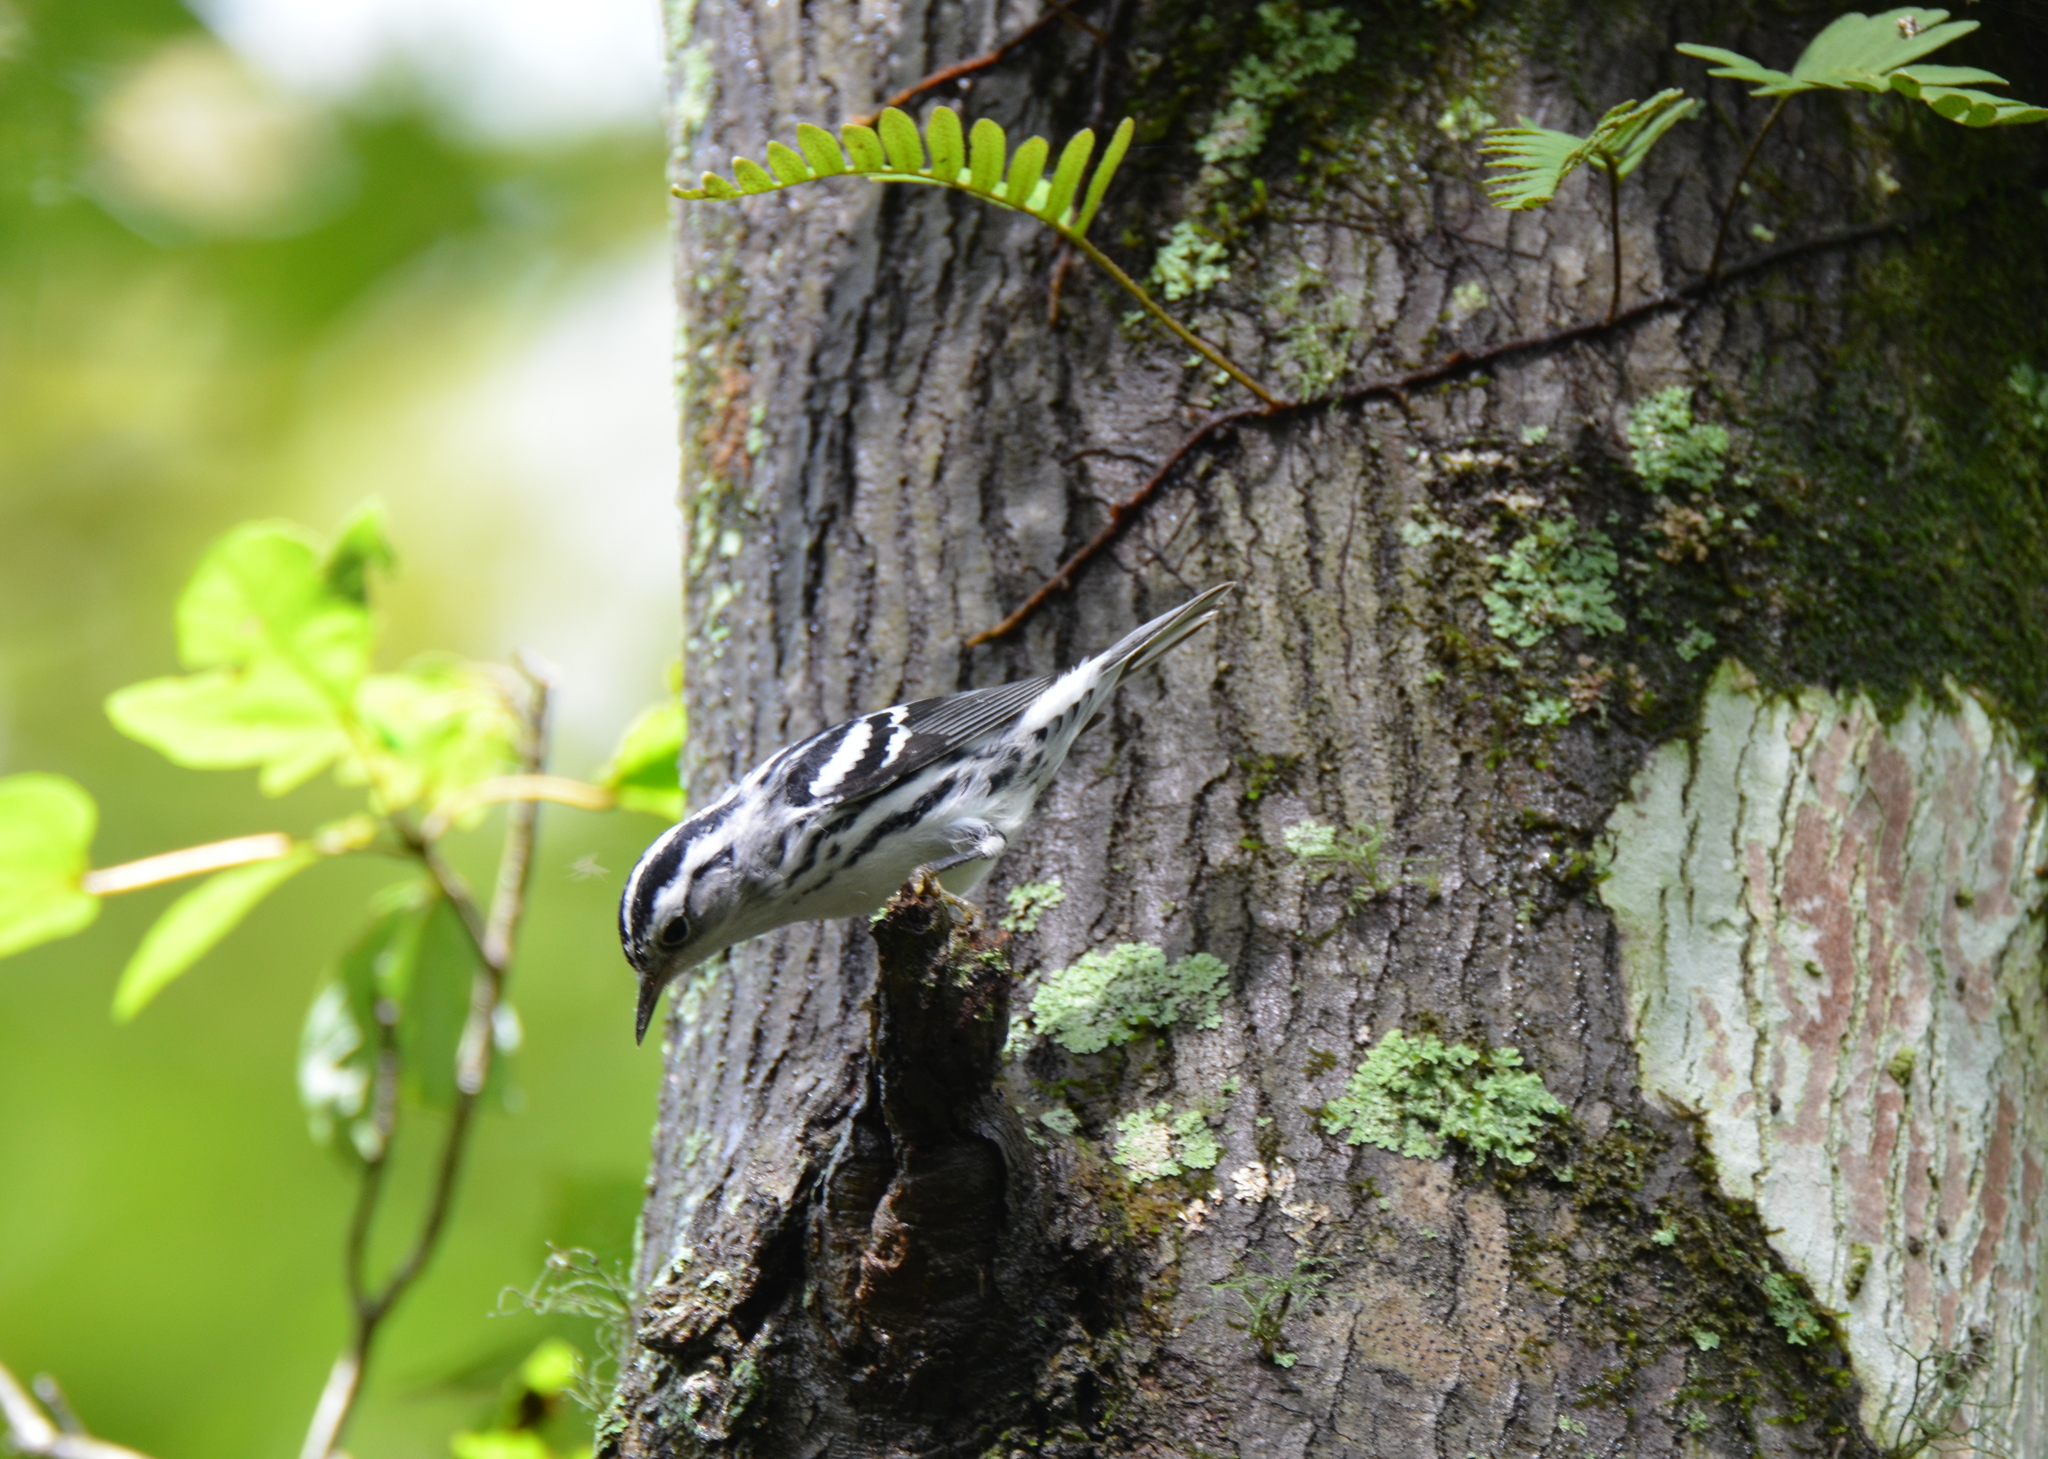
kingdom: Animalia
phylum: Chordata
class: Aves
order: Passeriformes
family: Parulidae
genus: Mniotilta
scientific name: Mniotilta varia
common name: Black-and-white warbler
